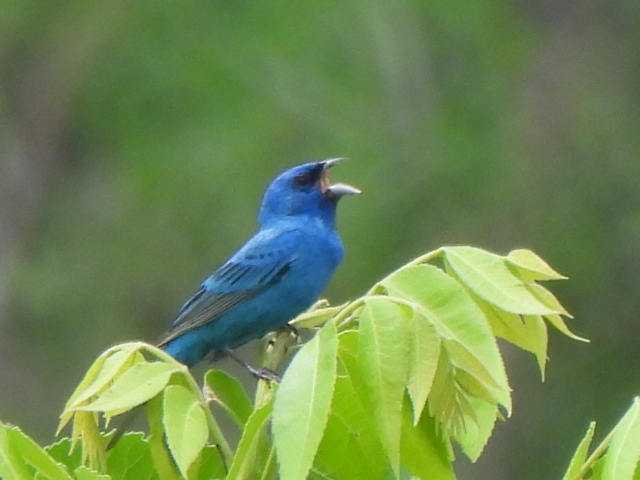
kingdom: Animalia
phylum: Chordata
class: Aves
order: Passeriformes
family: Cardinalidae
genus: Passerina
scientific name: Passerina cyanea
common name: Indigo bunting
